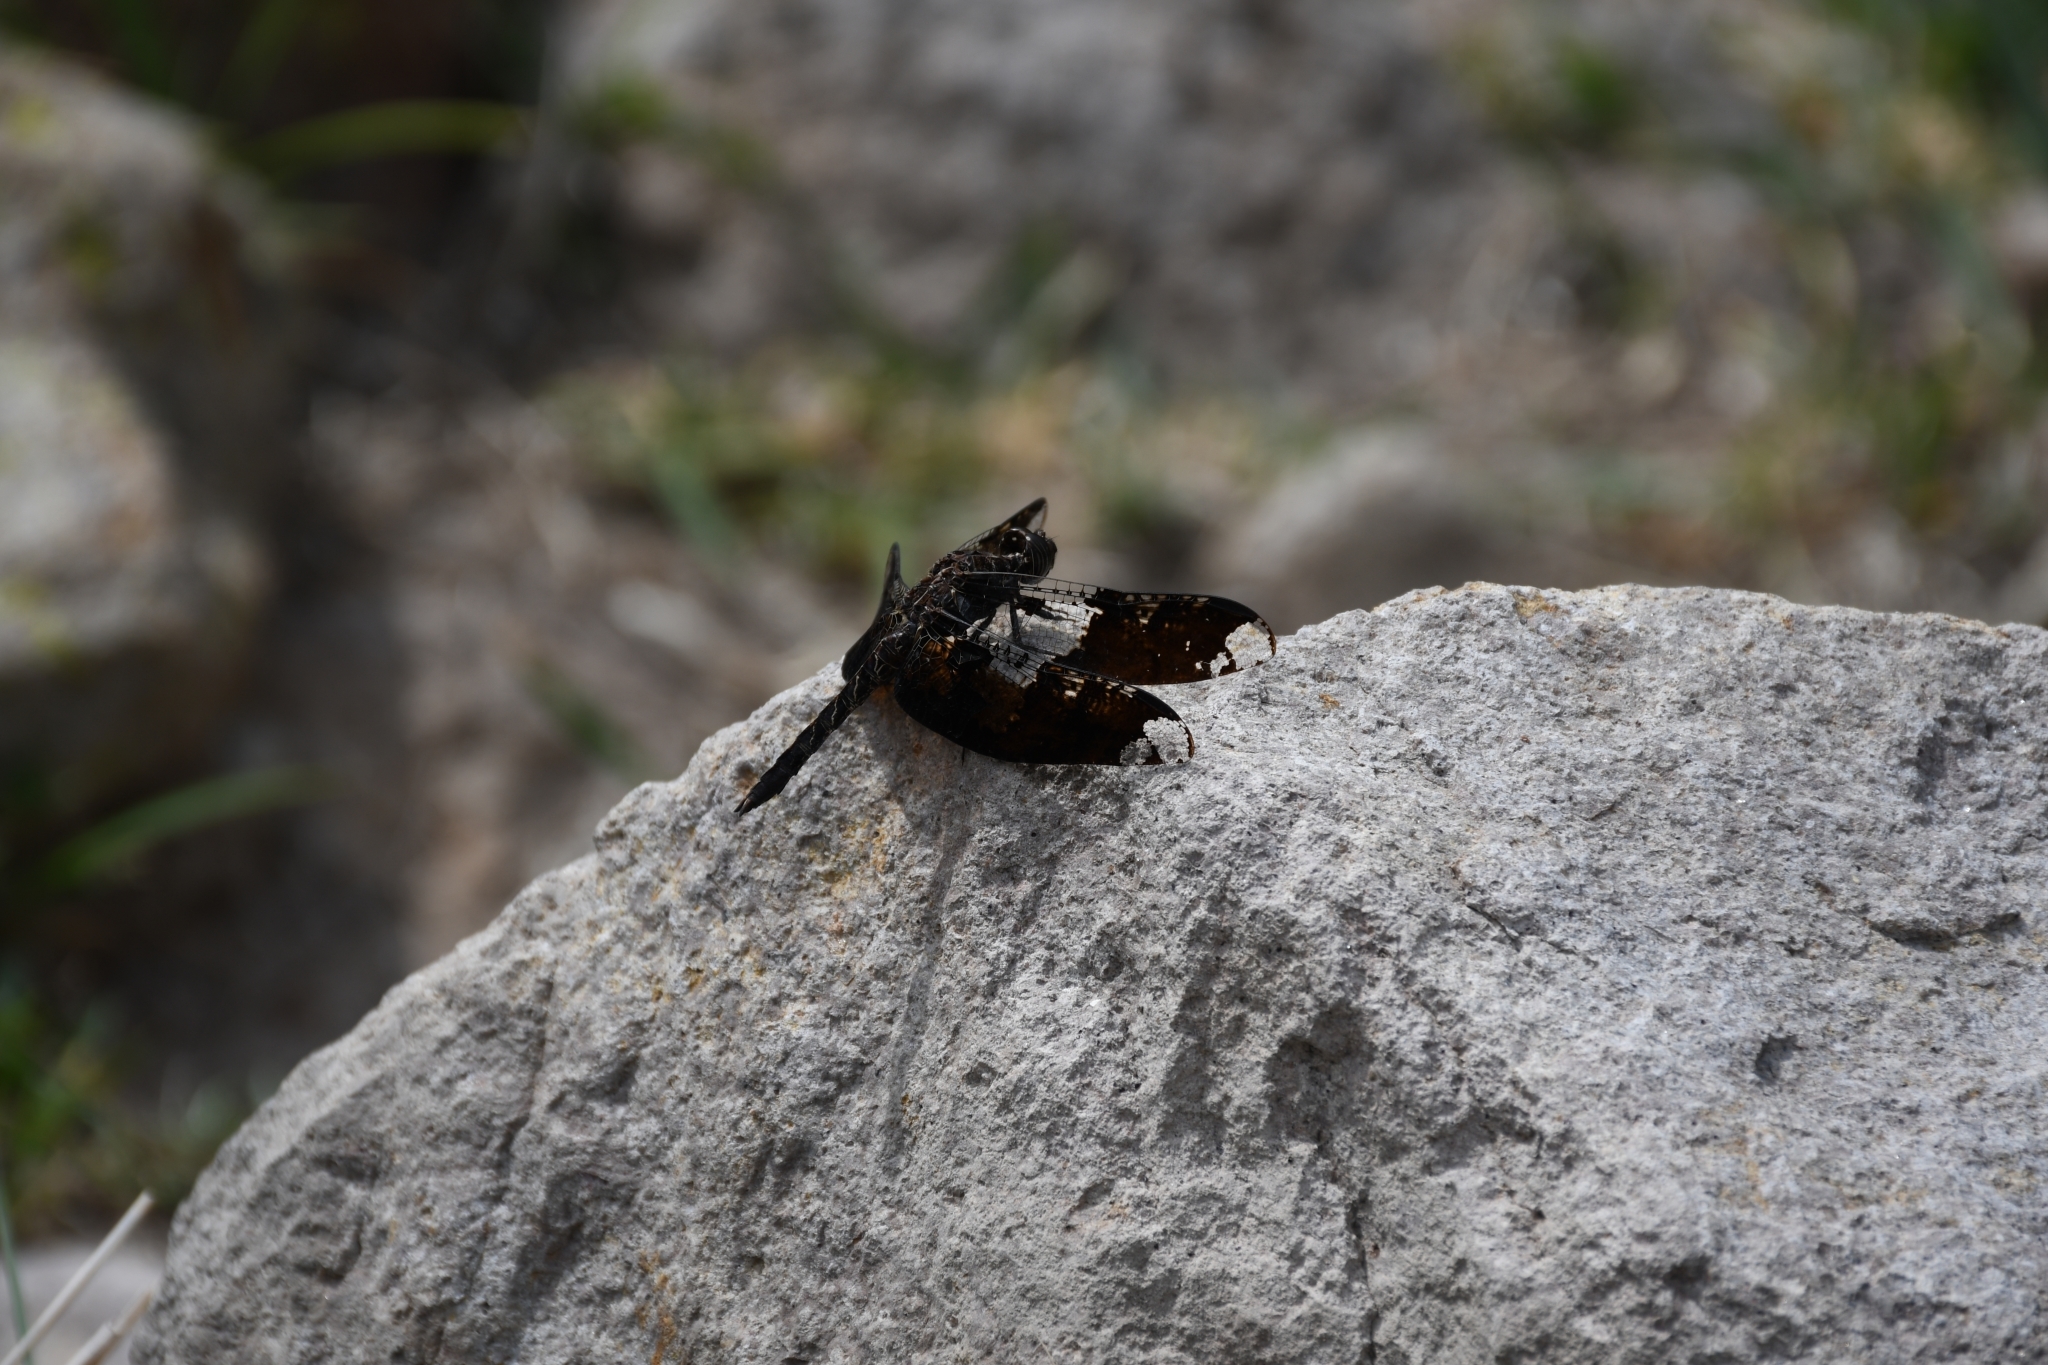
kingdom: Animalia
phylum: Arthropoda
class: Insecta
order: Odonata
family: Libellulidae
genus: Pseudoleon
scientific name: Pseudoleon superbus
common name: Filigree skimmer
